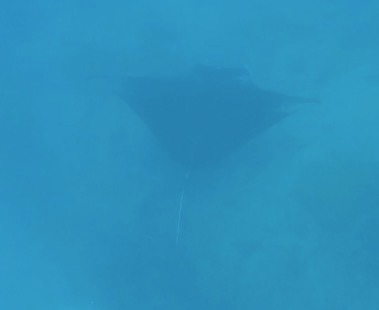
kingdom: Animalia
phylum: Chordata
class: Elasmobranchii
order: Myliobatiformes
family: Myliobatidae
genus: Mobula
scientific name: Mobula alfredi
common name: Reef manta ray
